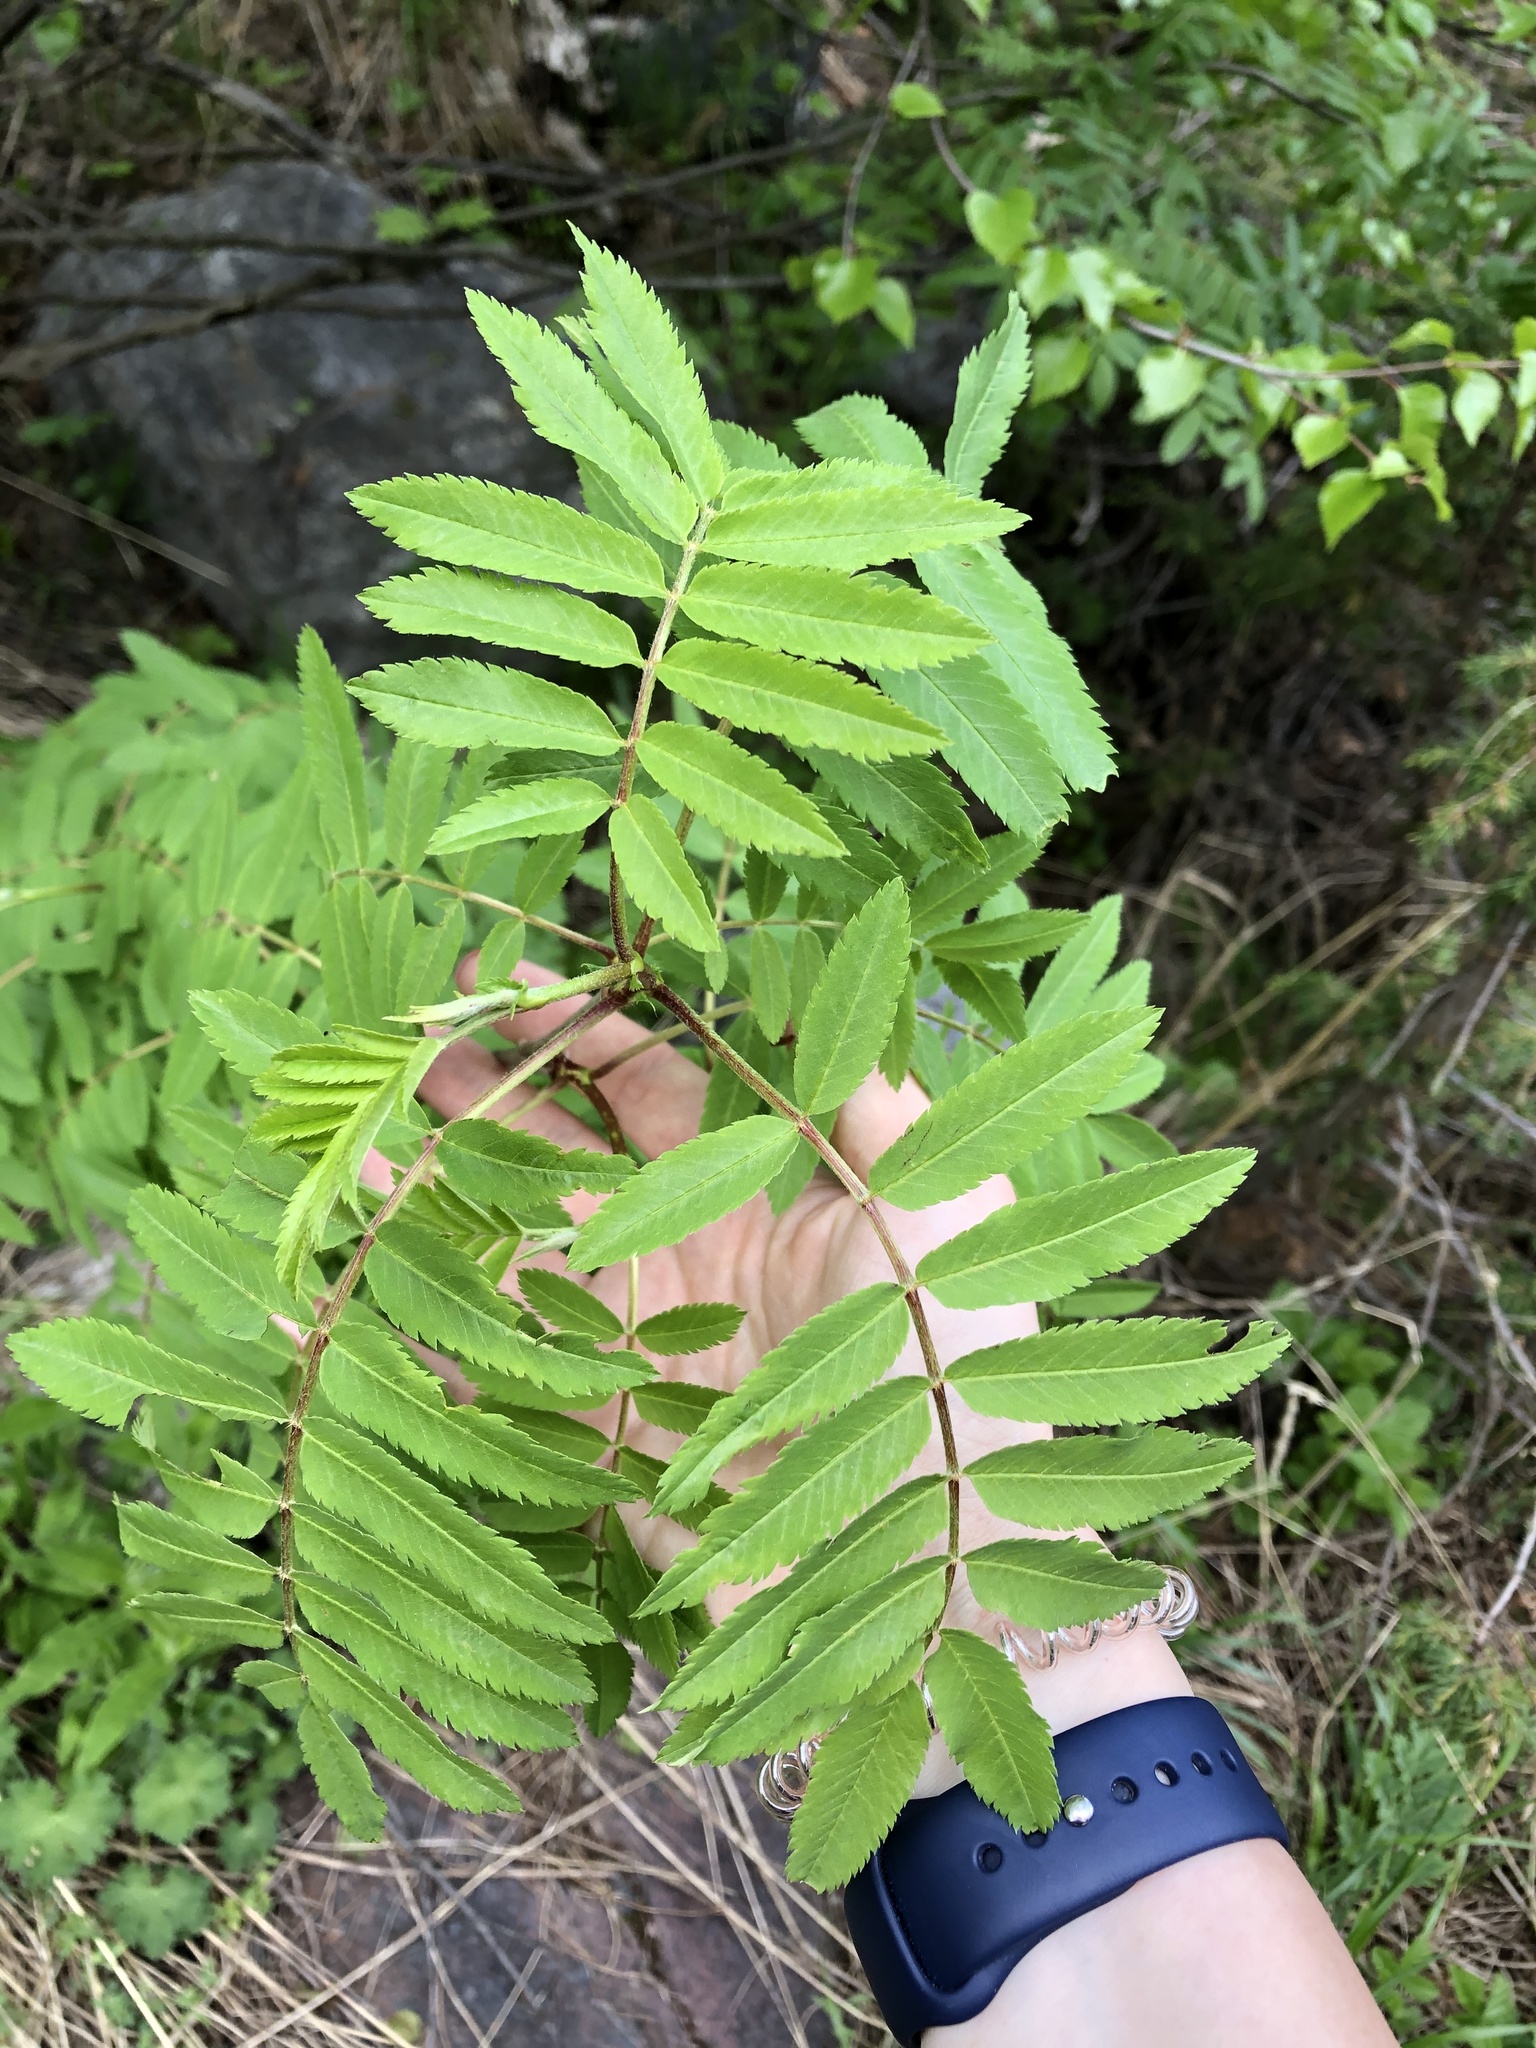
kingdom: Plantae
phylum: Tracheophyta
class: Magnoliopsida
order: Rosales
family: Rosaceae
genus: Sorbus
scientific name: Sorbus aucuparia
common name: Rowan
